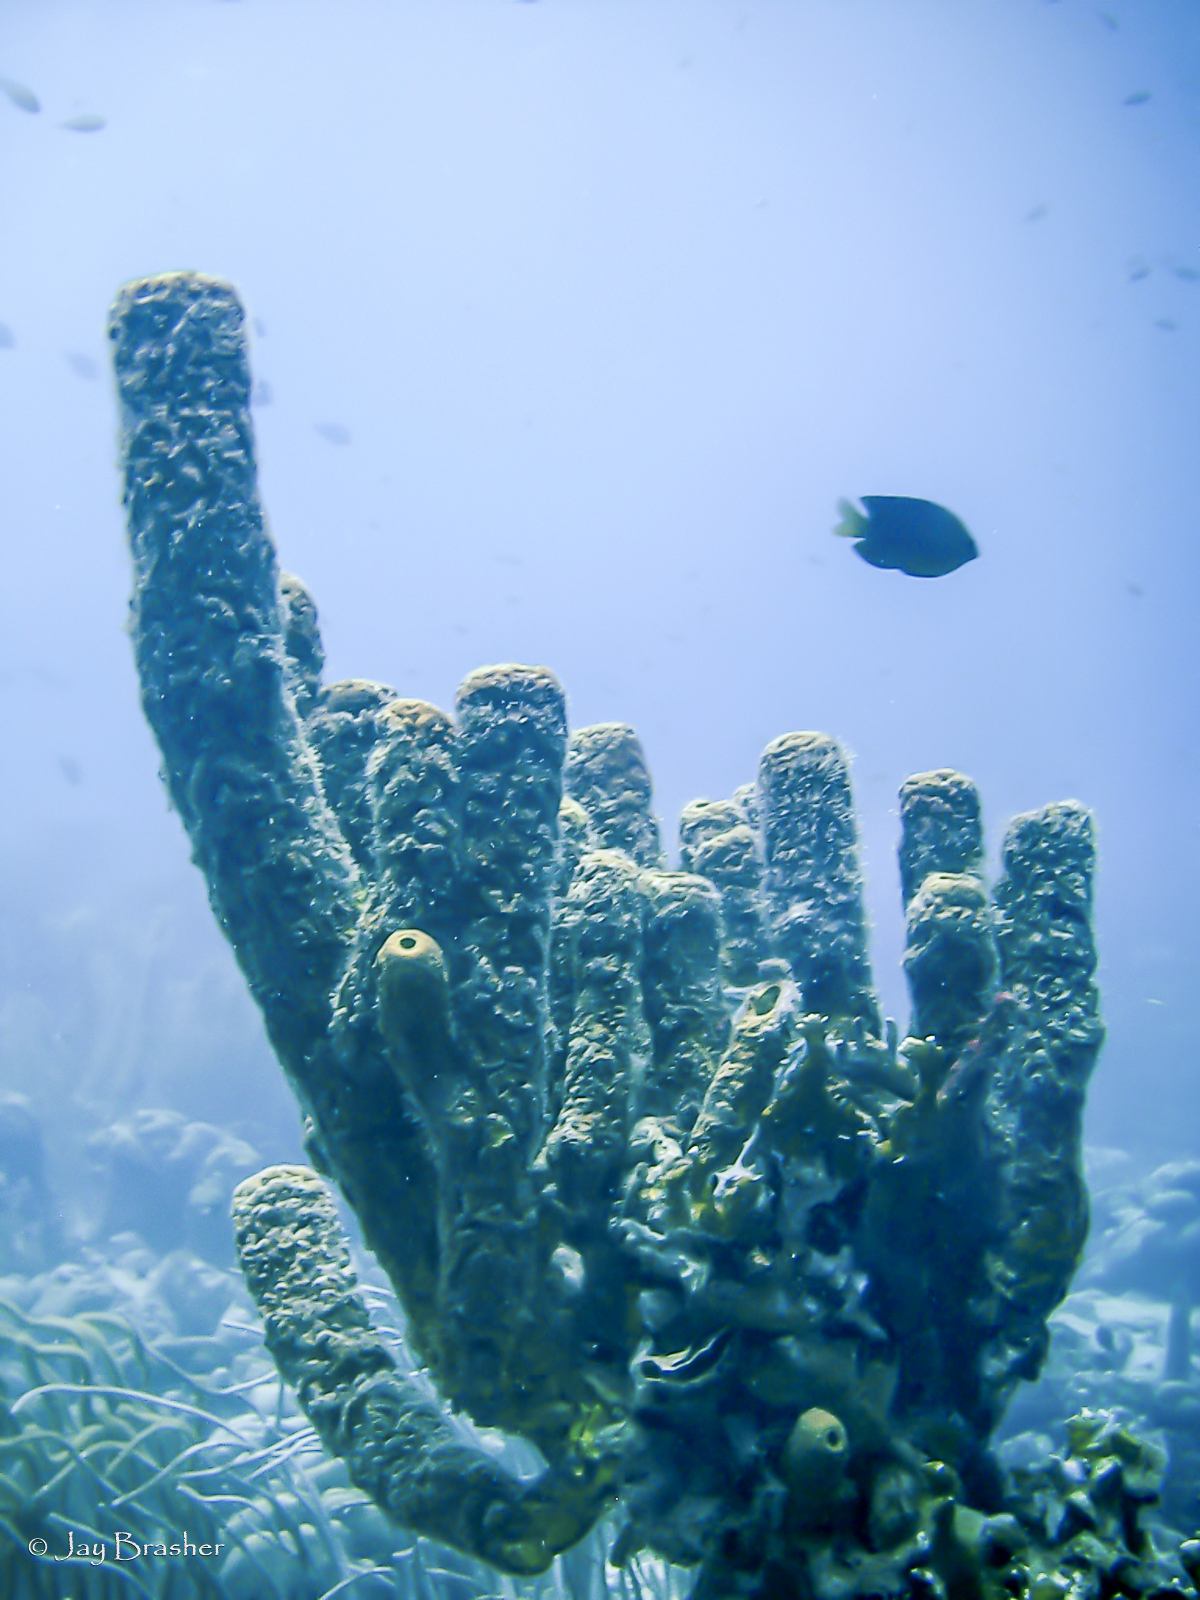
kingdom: Animalia
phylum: Porifera
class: Demospongiae
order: Verongiida
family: Aplysinidae
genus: Aplysina
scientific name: Aplysina archeri
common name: Stove-pipe sponge
